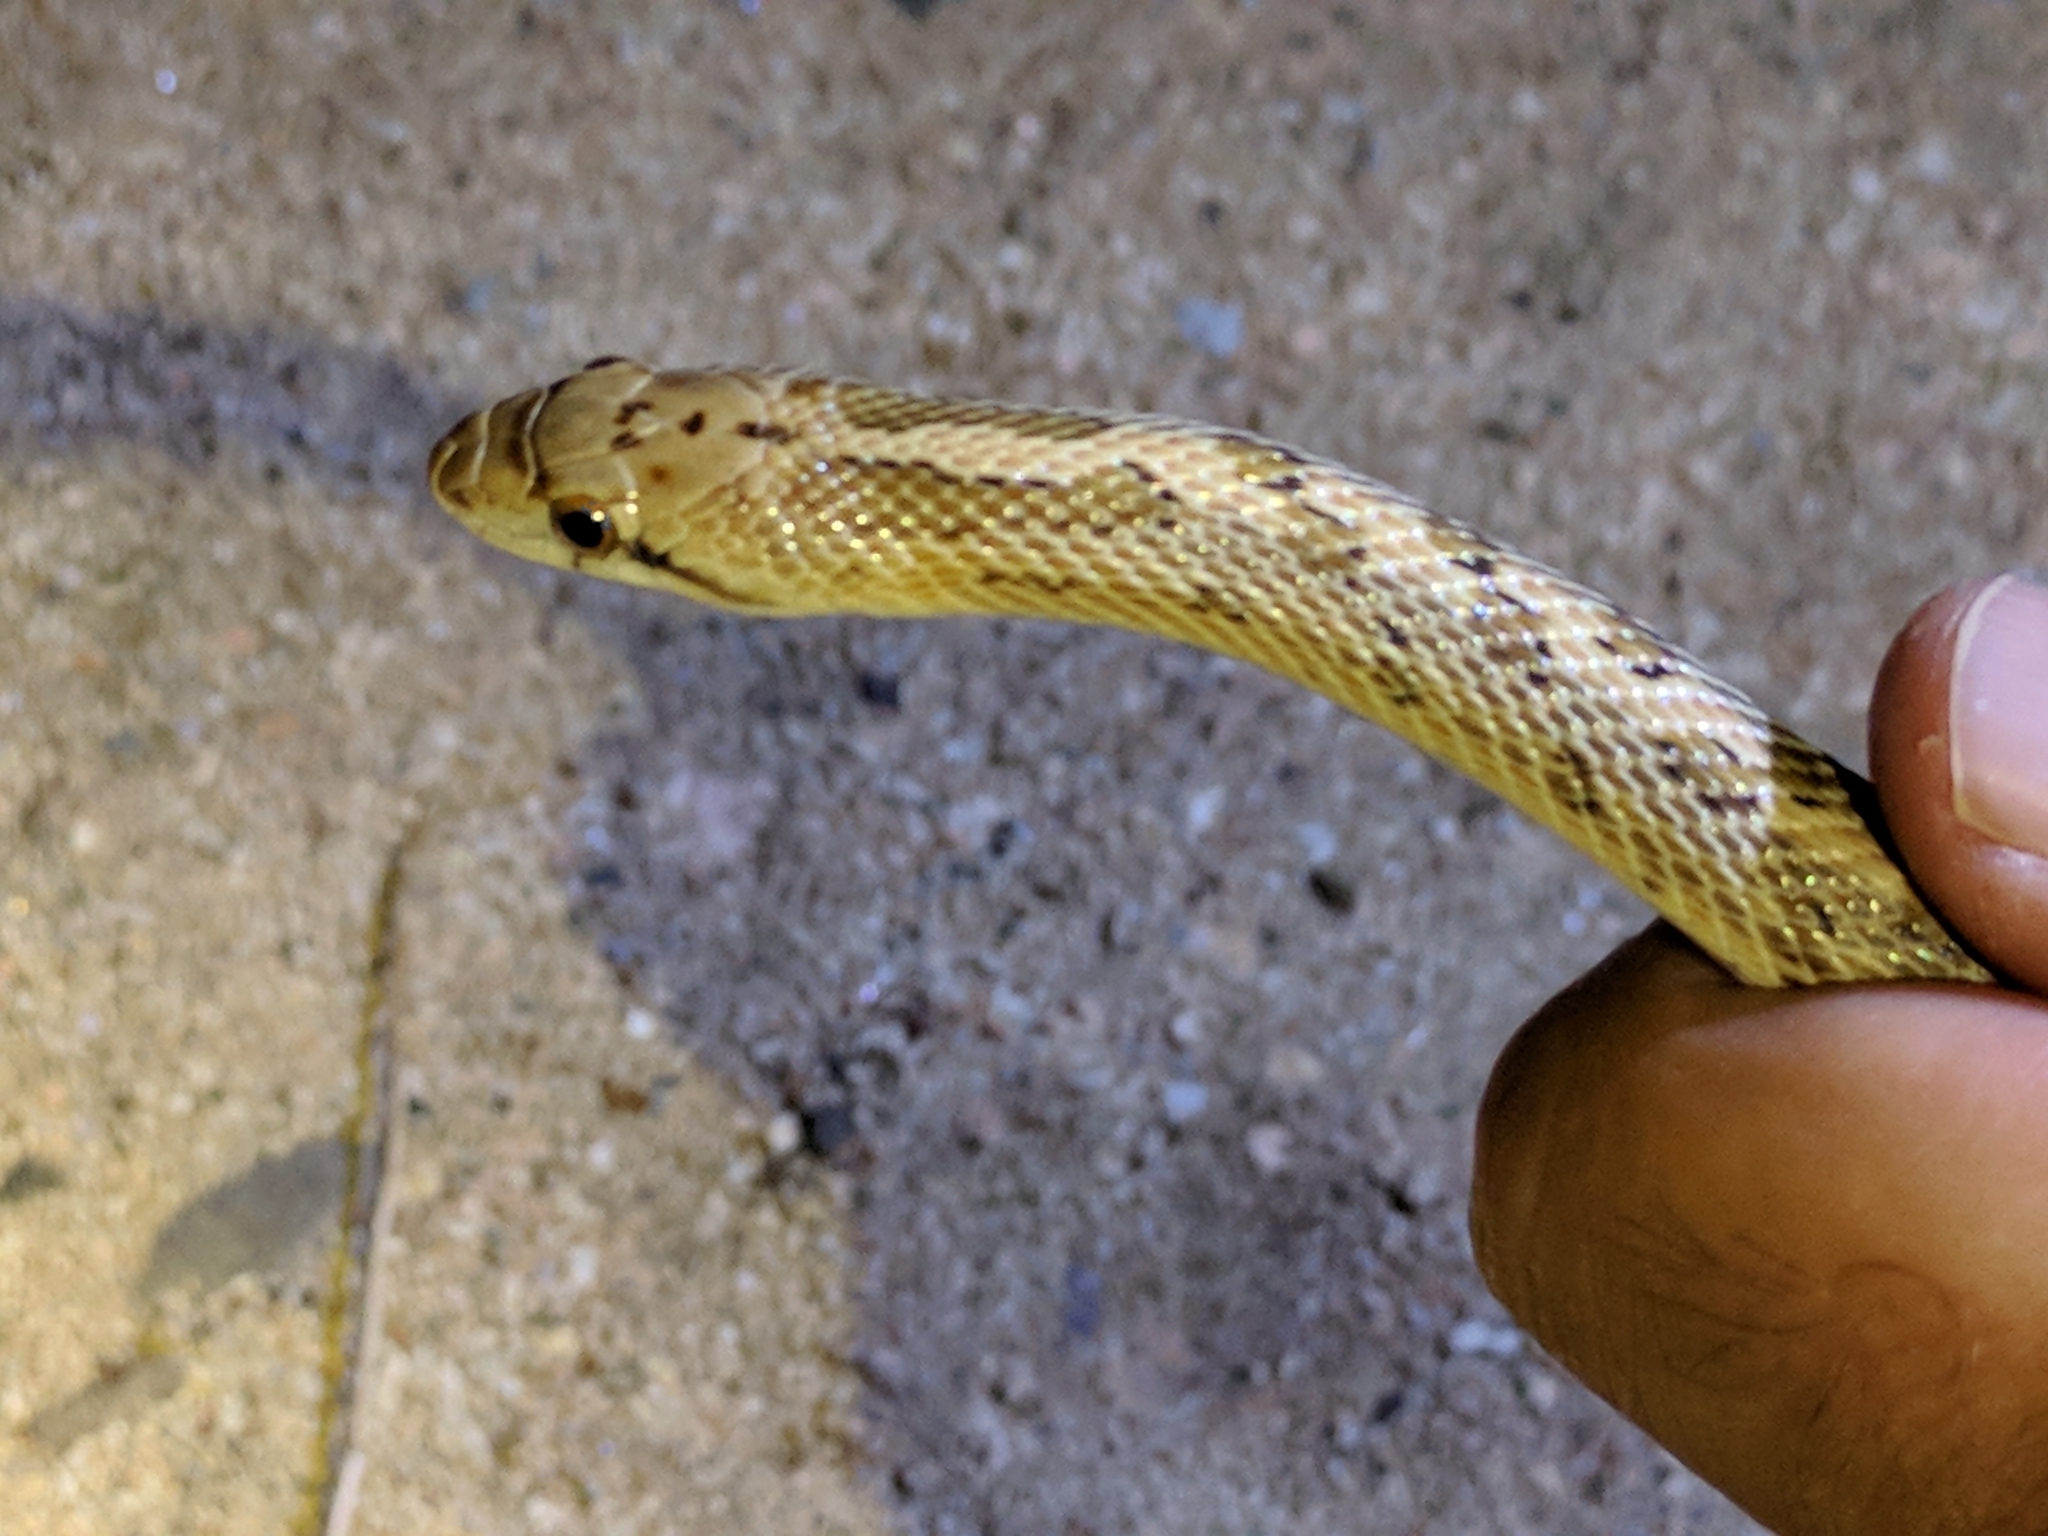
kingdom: Animalia
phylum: Chordata
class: Squamata
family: Colubridae
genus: Arizona
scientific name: Arizona elegans
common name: Glossy snake
